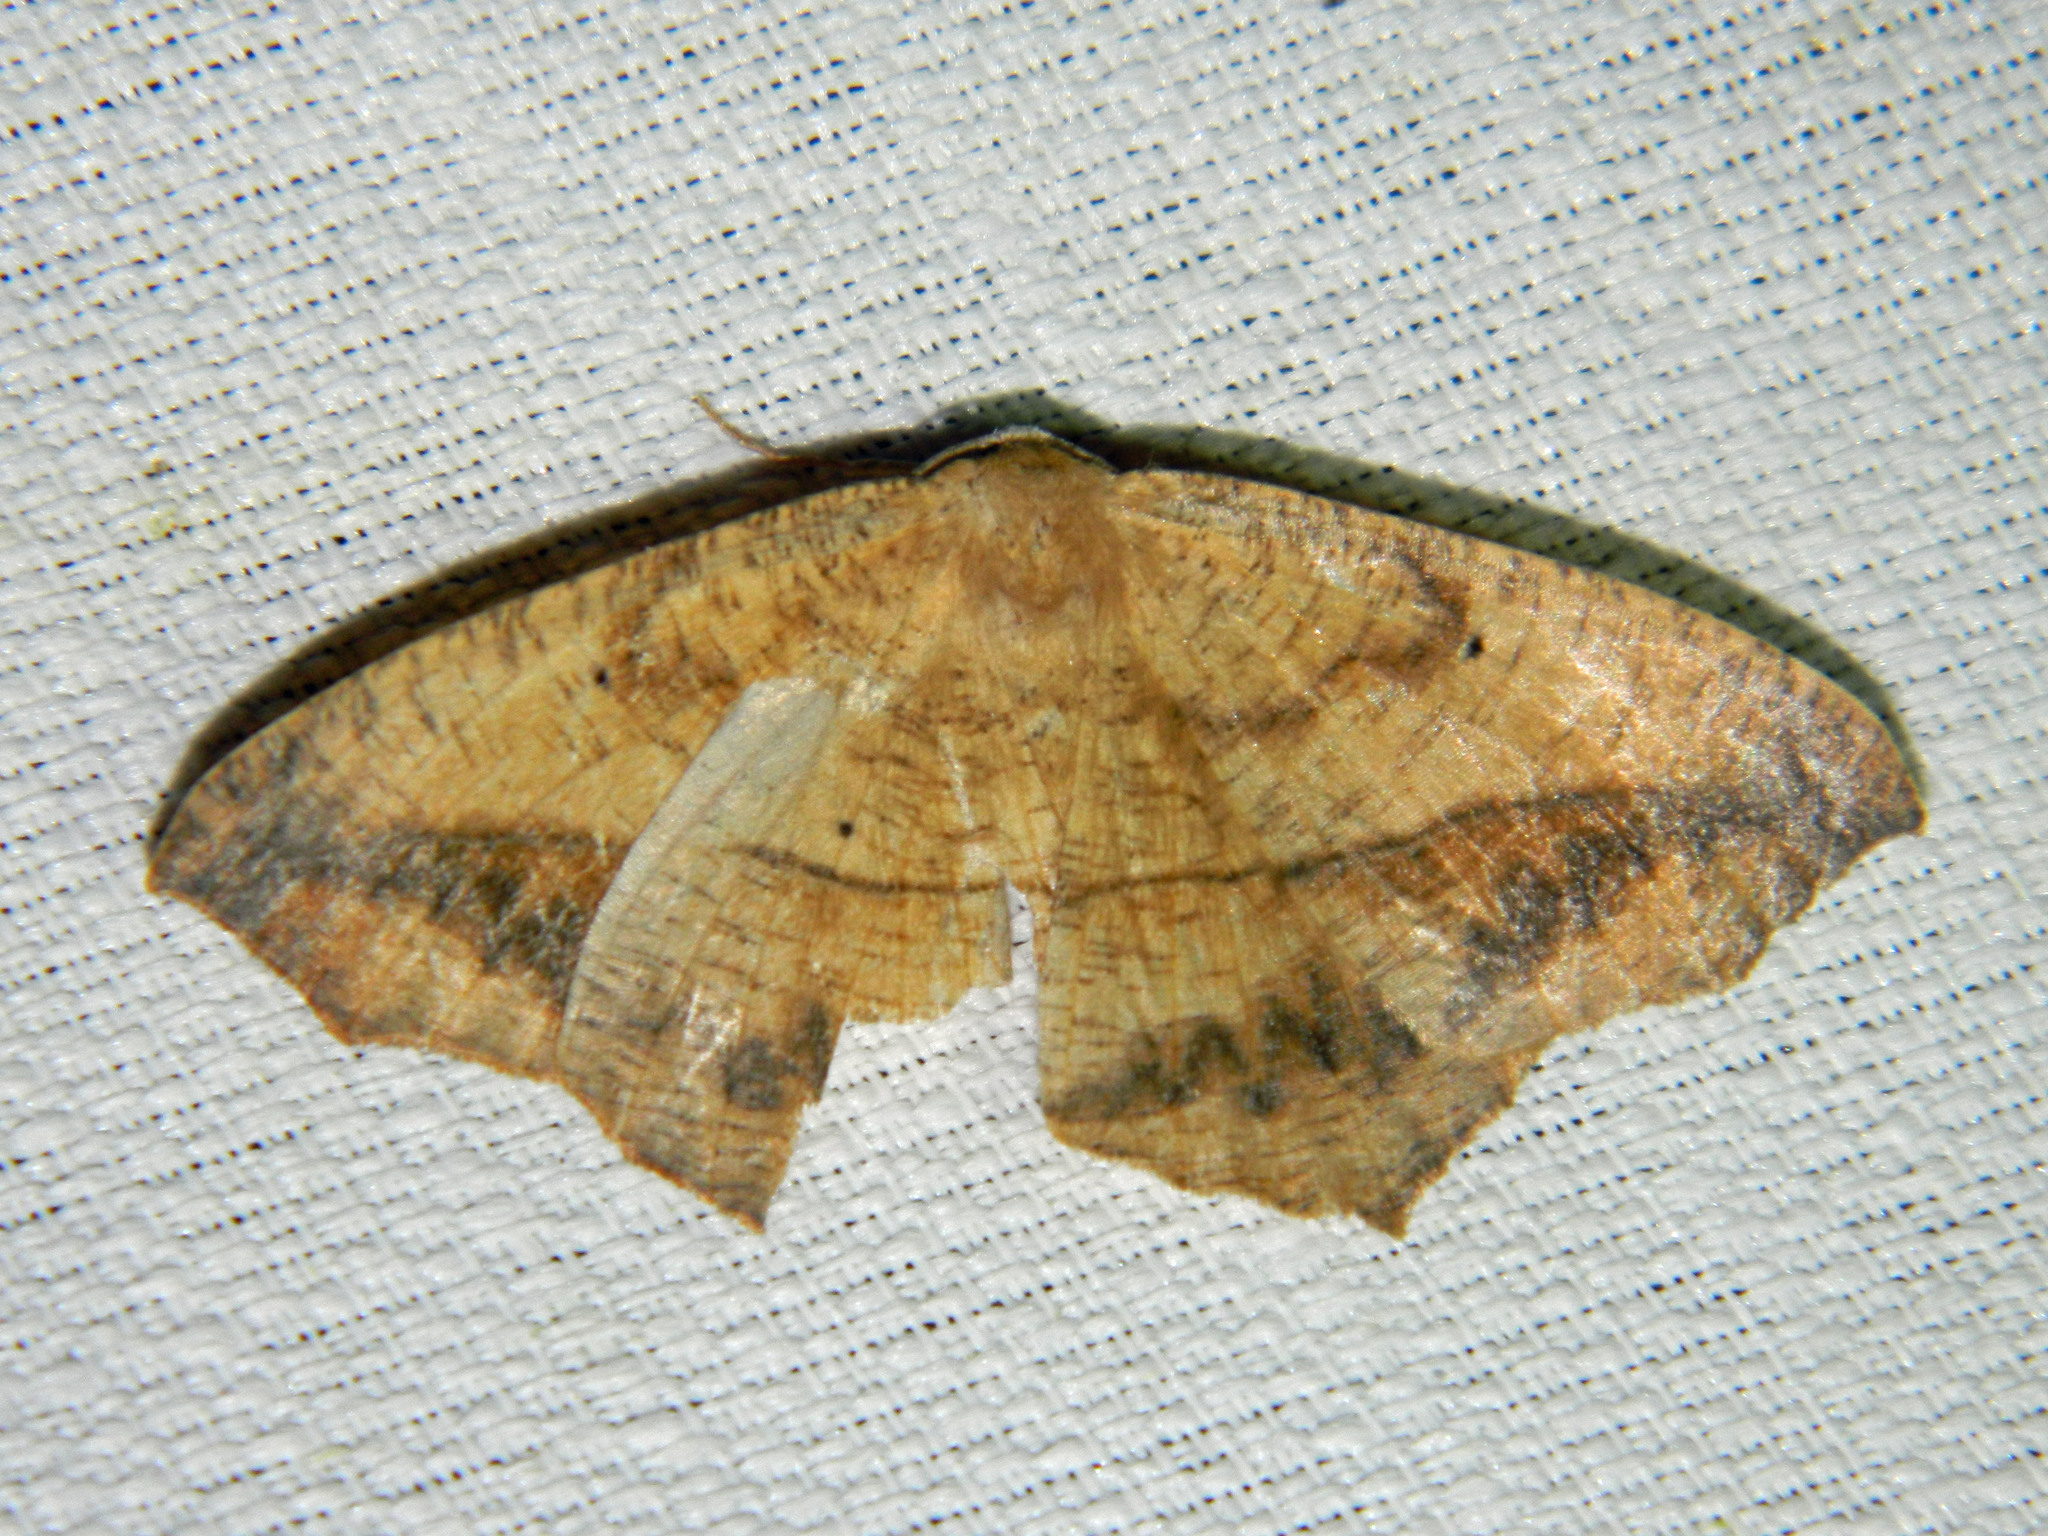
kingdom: Animalia
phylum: Arthropoda
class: Insecta
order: Lepidoptera
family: Geometridae
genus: Prochoerodes
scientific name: Prochoerodes lineola
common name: Large maple spanworm
